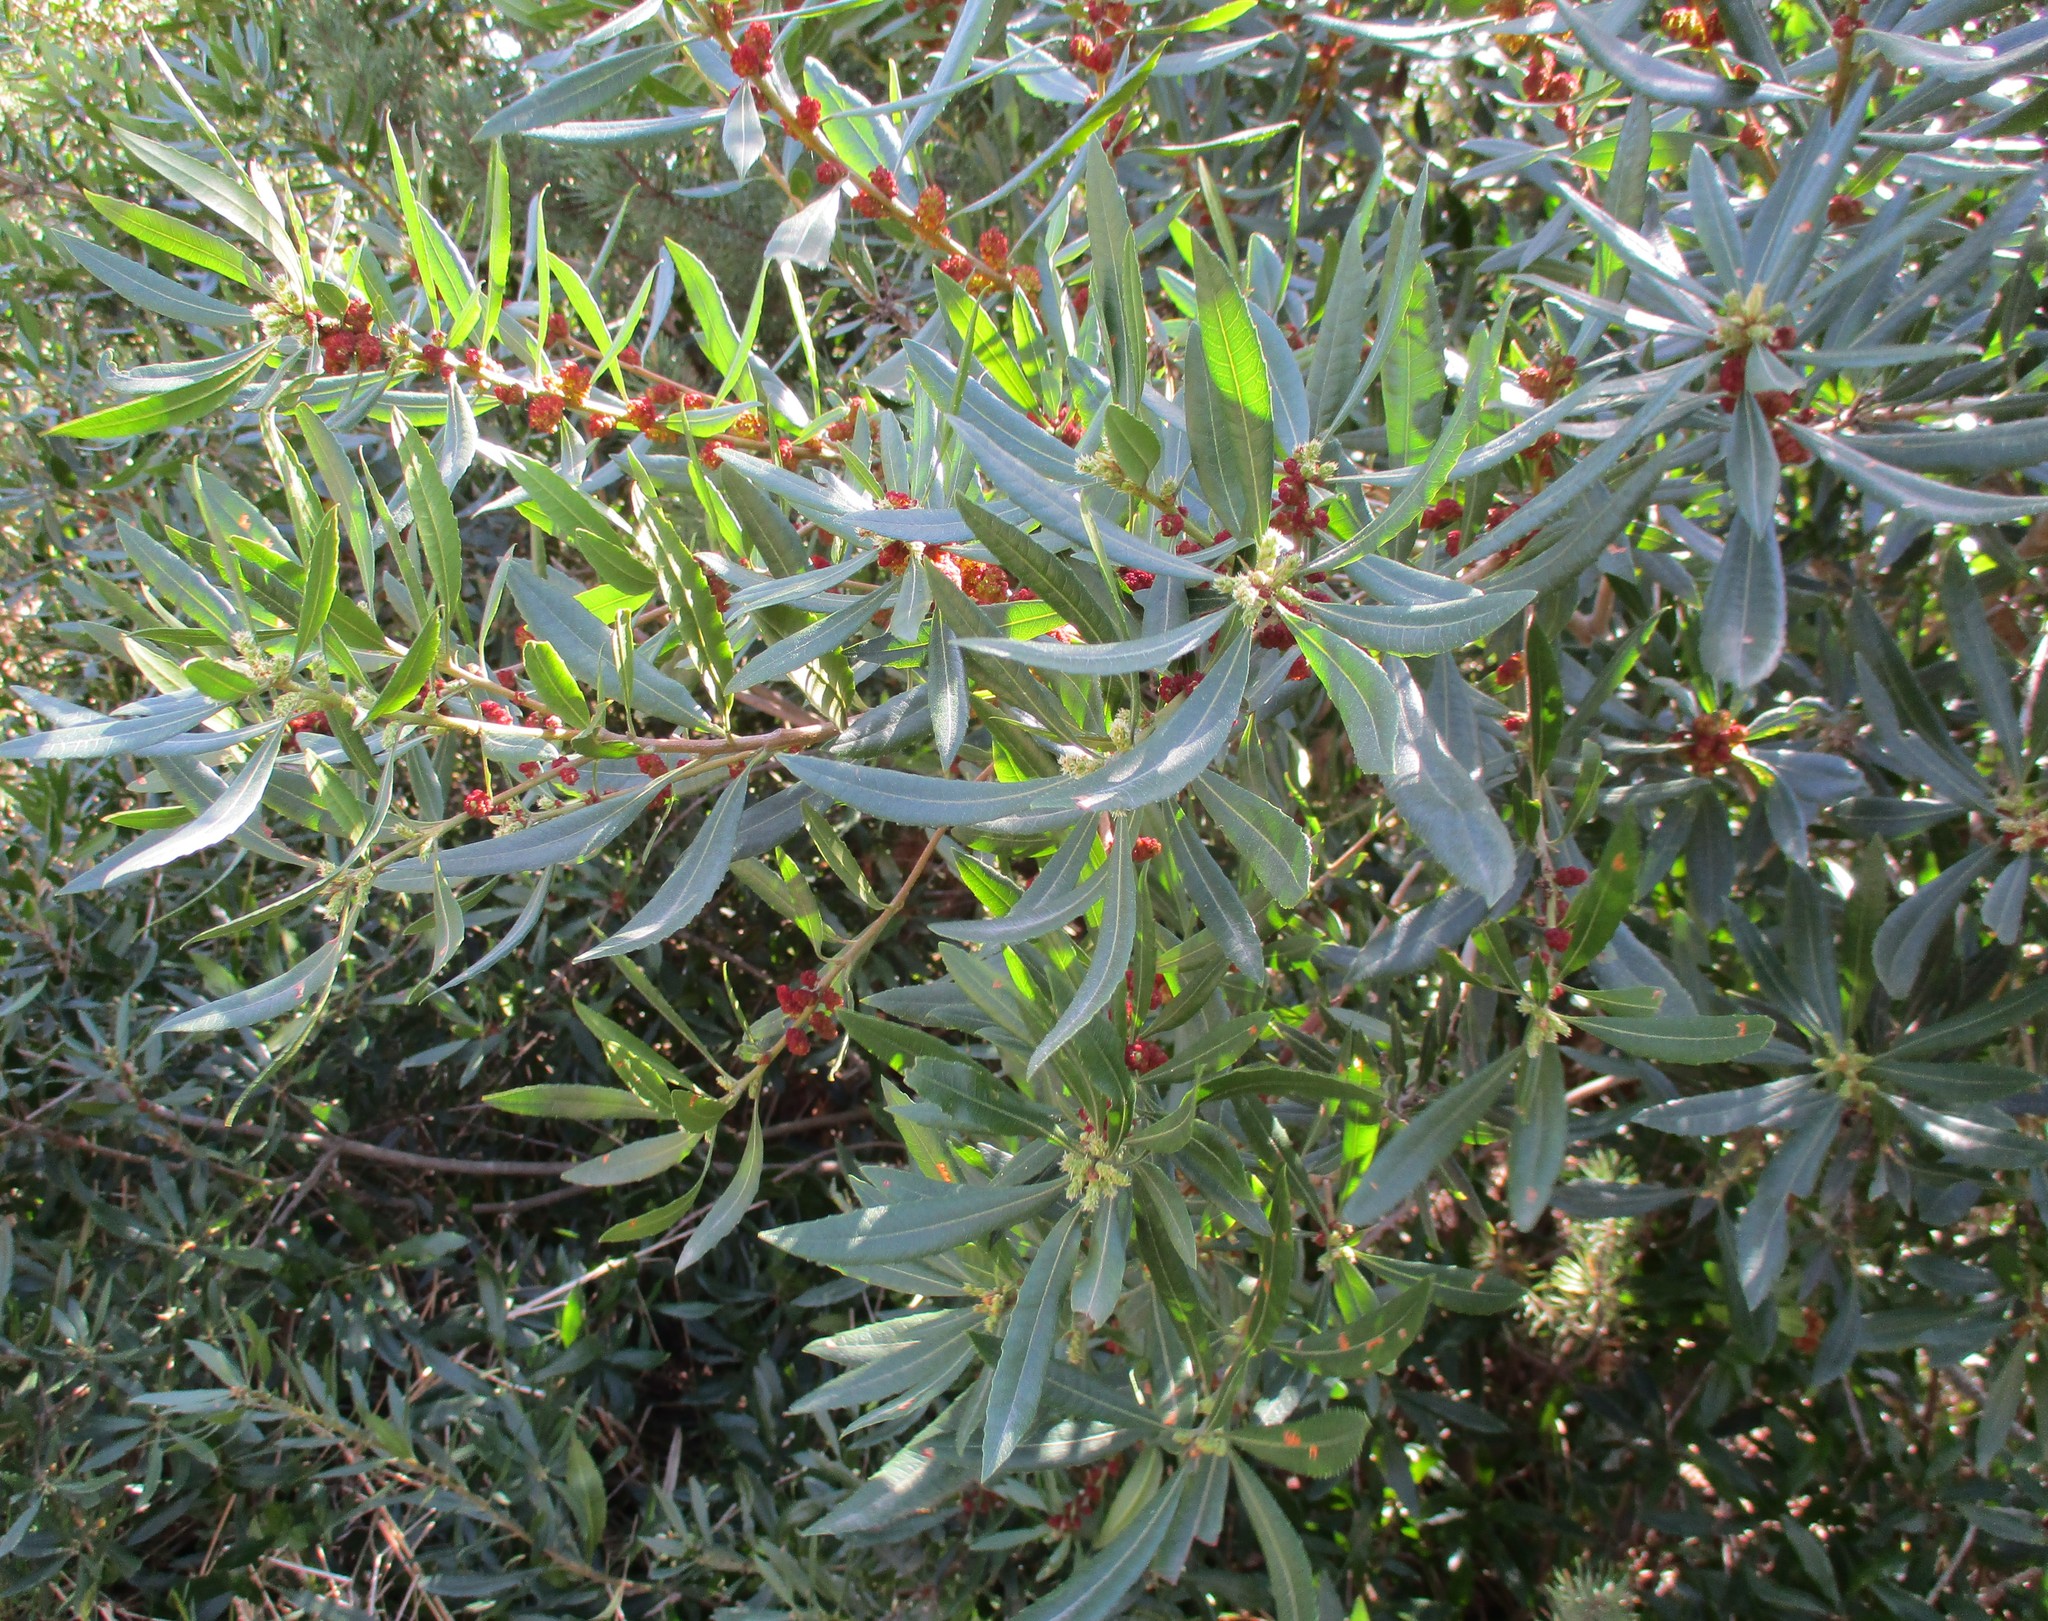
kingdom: Plantae
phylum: Tracheophyta
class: Magnoliopsida
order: Fagales
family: Myricaceae
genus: Morella
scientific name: Morella californica
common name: California wax-myrtle
